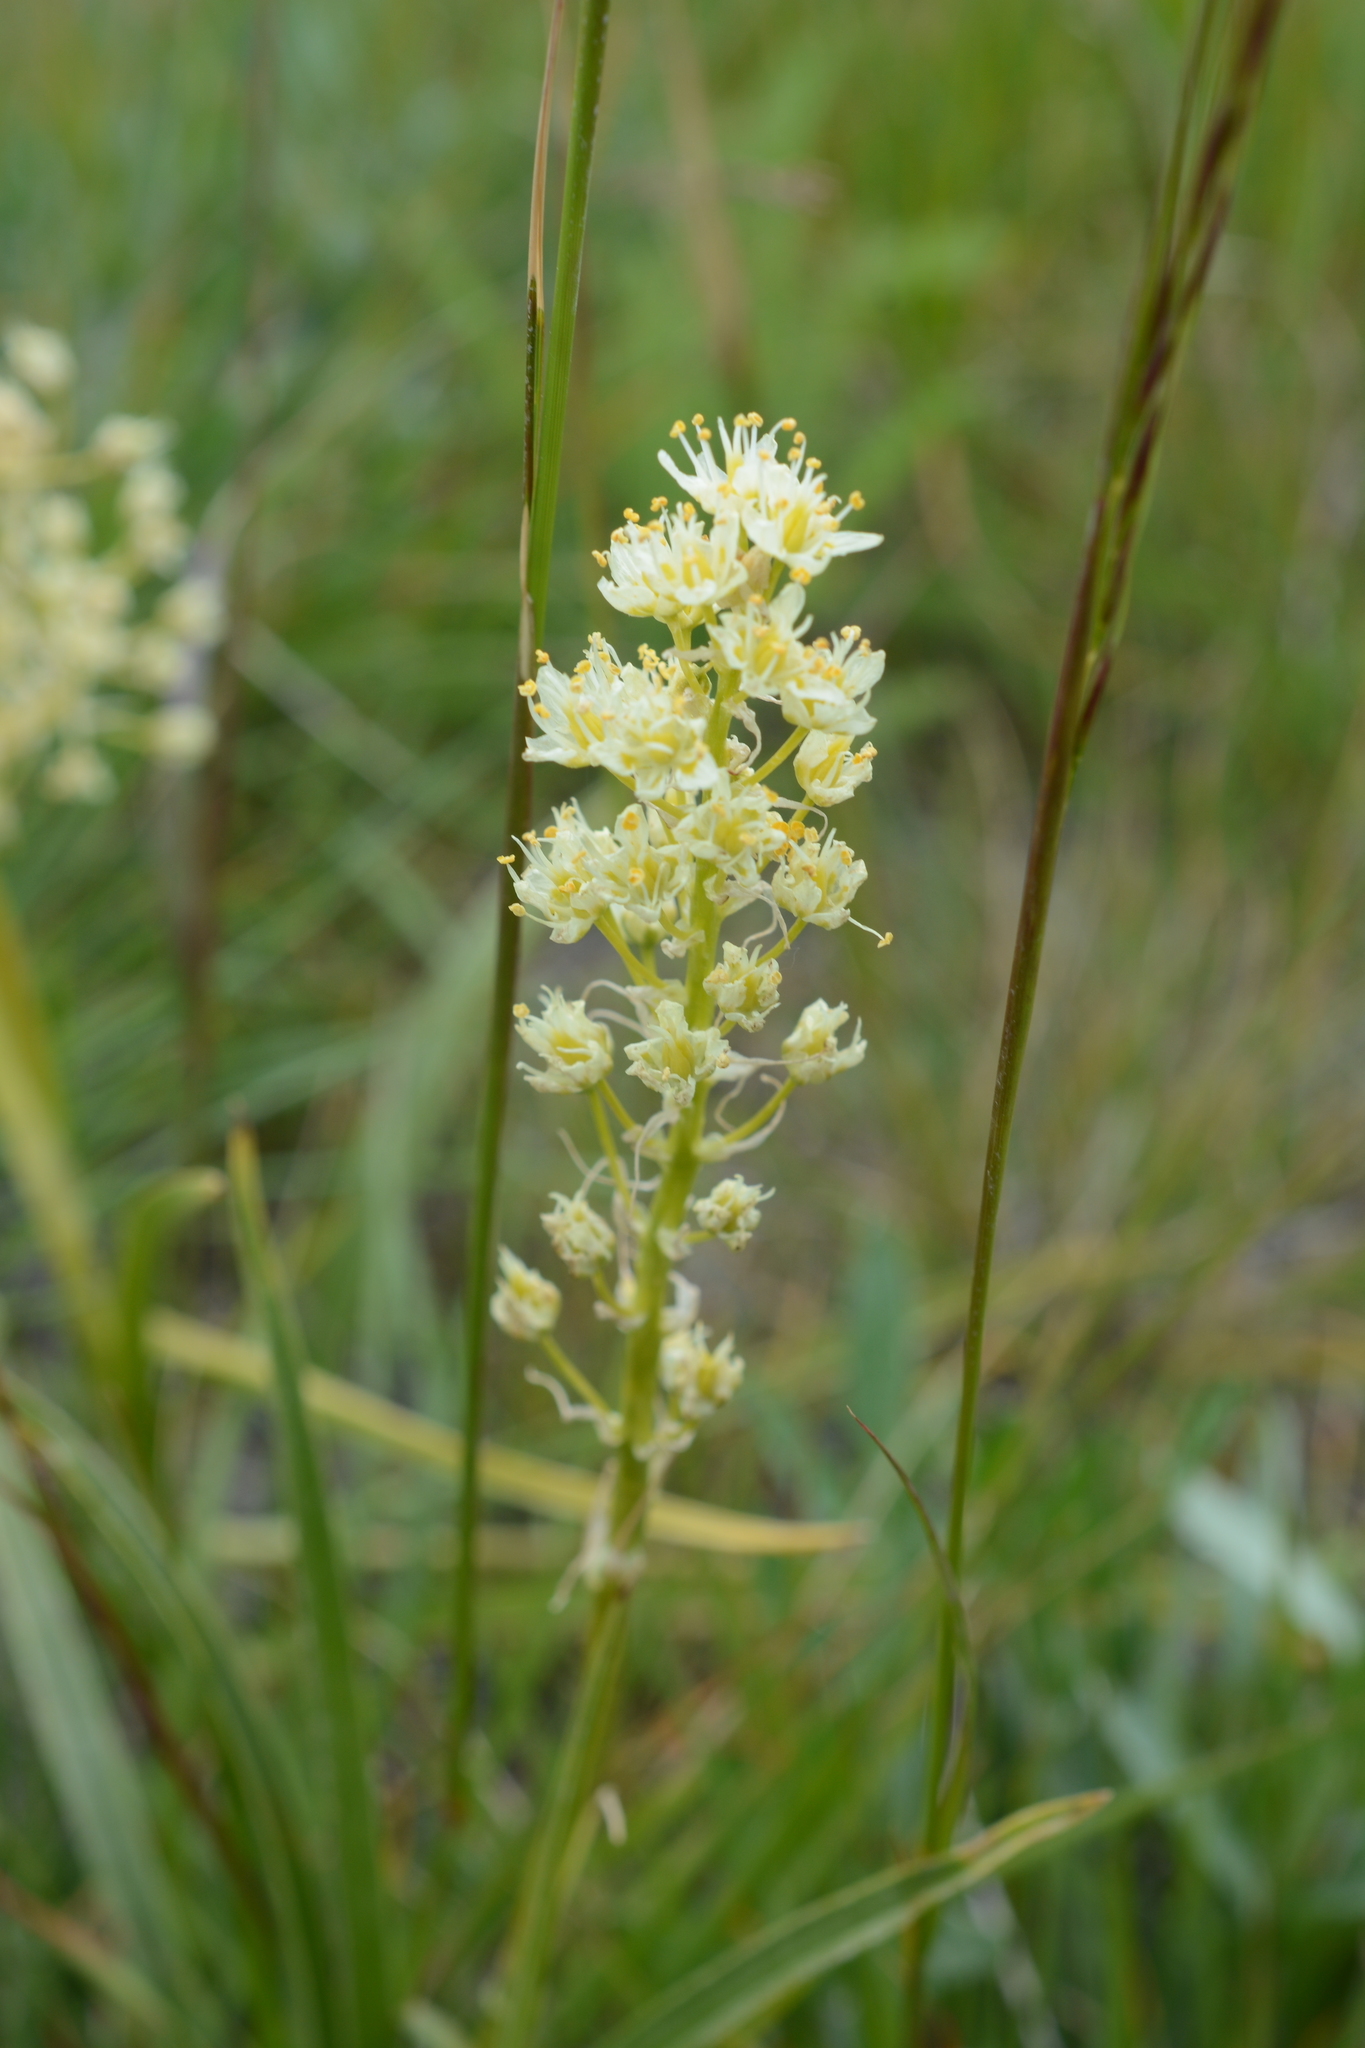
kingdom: Plantae
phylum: Tracheophyta
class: Liliopsida
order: Liliales
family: Melanthiaceae
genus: Toxicoscordion
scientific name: Toxicoscordion venenosum
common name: Meadow death camas
